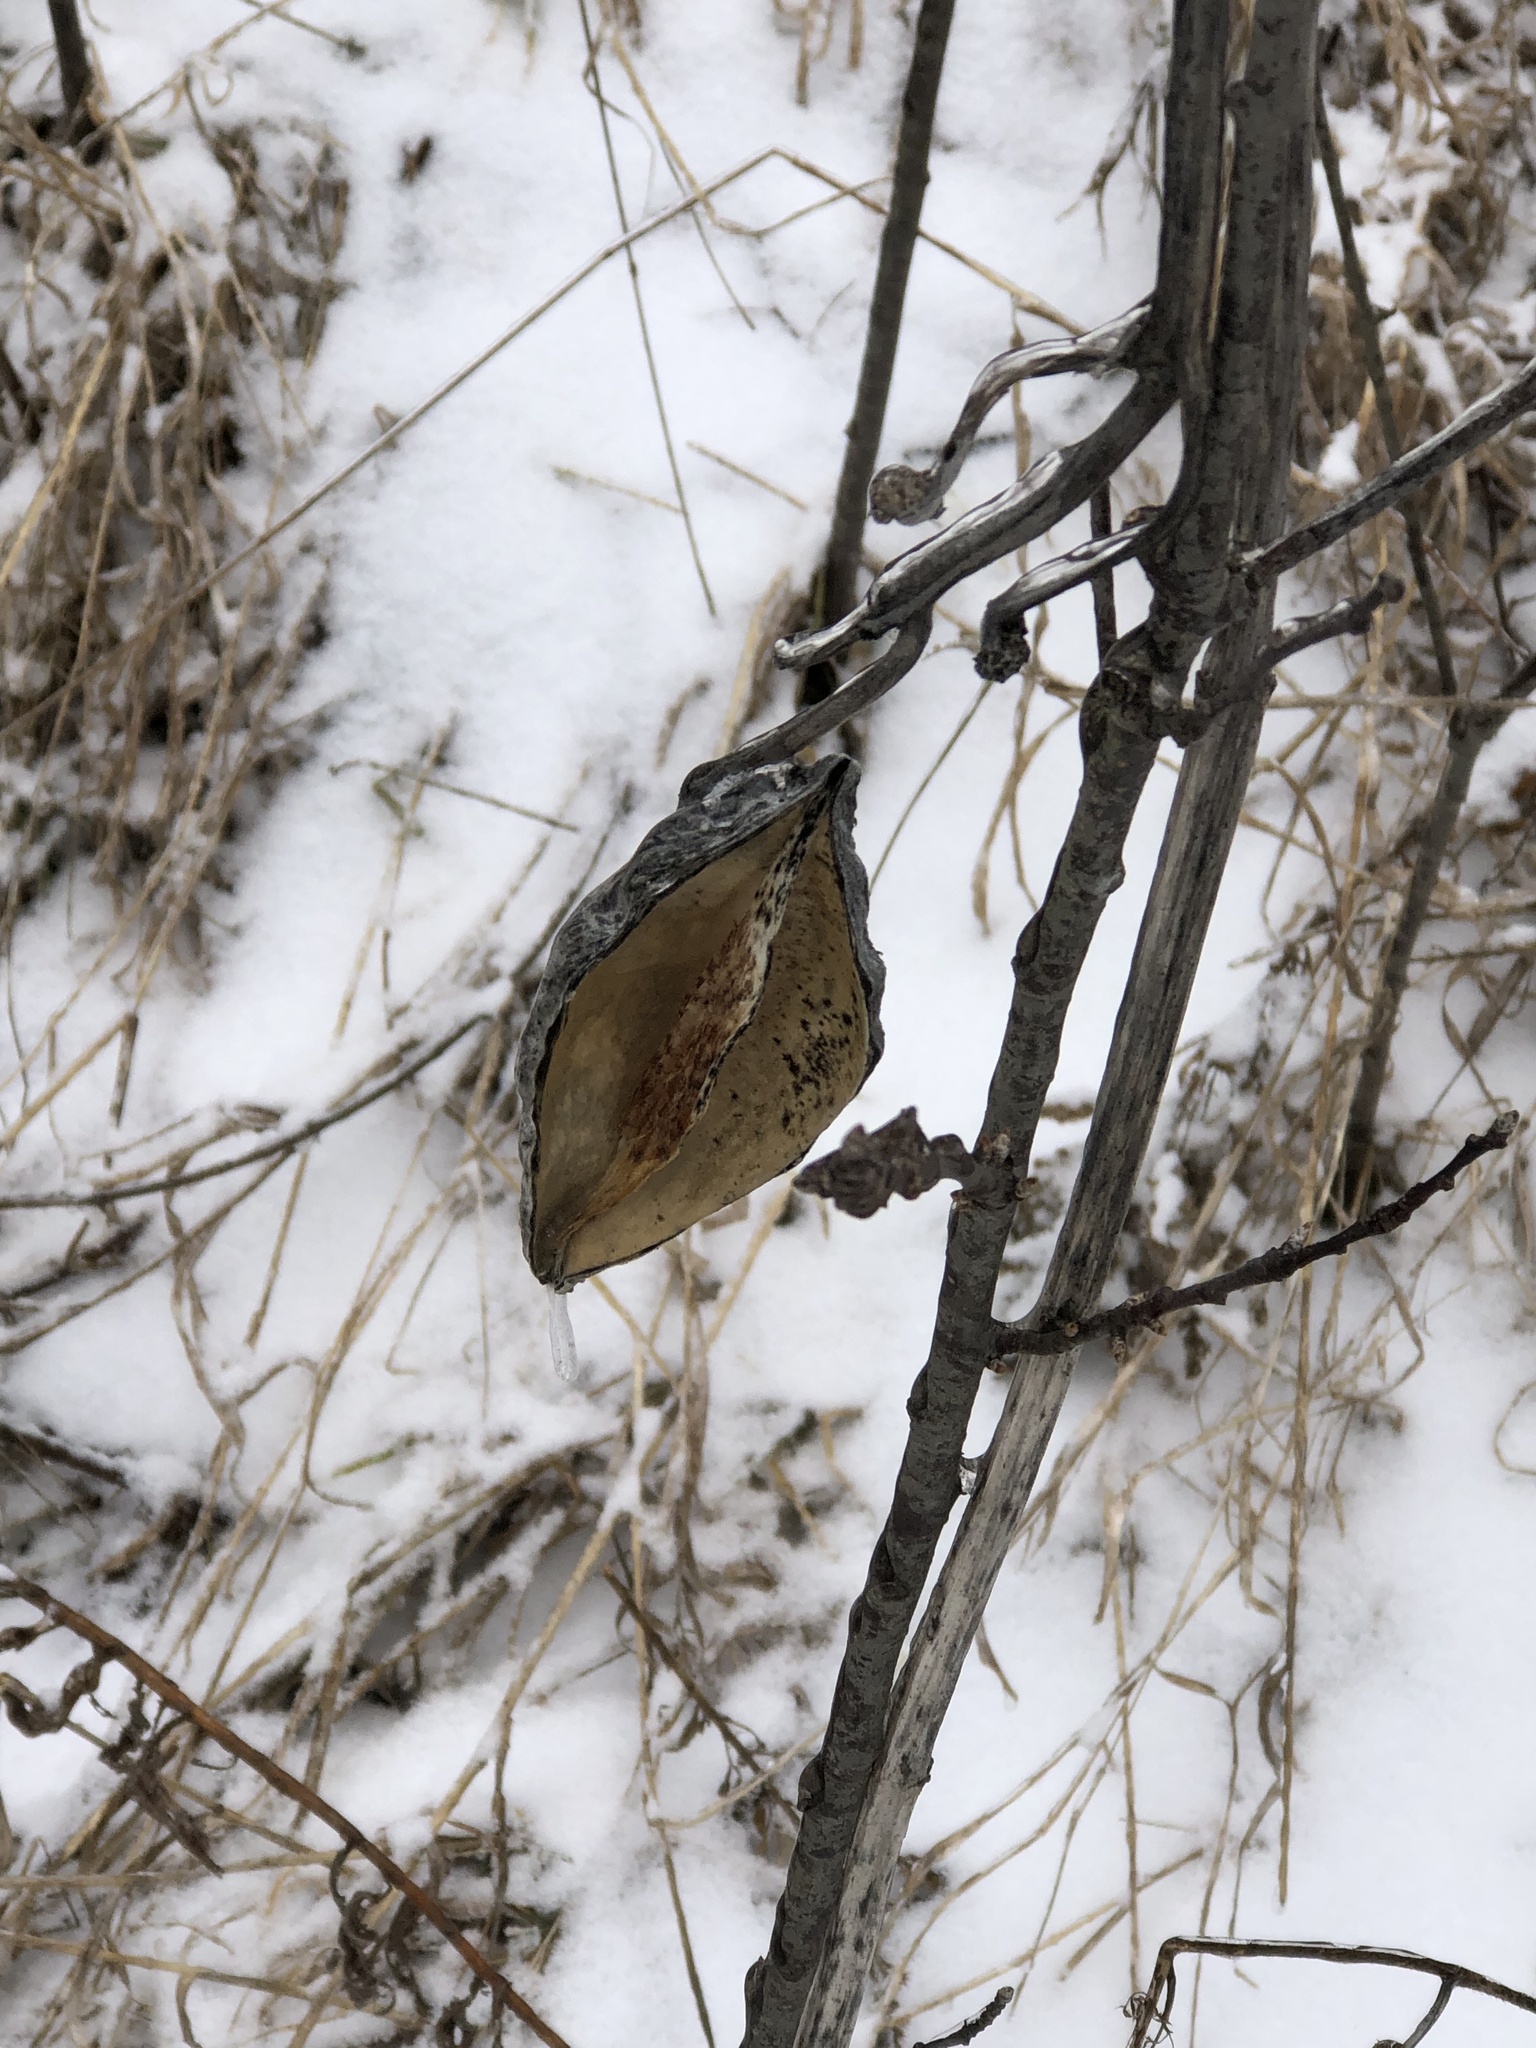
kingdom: Plantae
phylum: Tracheophyta
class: Magnoliopsida
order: Gentianales
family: Apocynaceae
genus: Asclepias
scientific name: Asclepias syriaca
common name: Common milkweed
